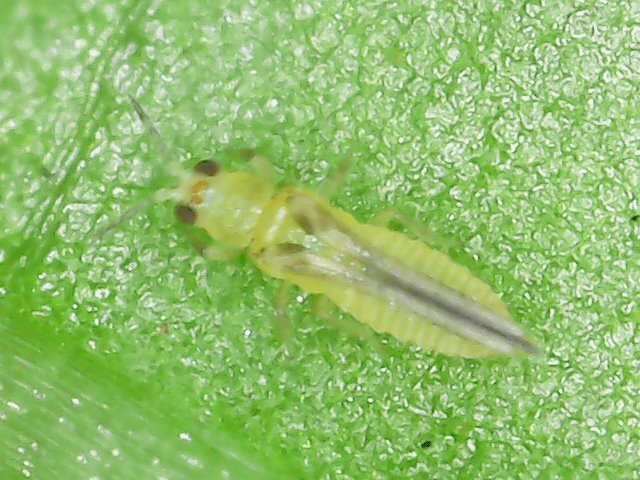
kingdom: Animalia
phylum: Arthropoda
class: Insecta
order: Thysanoptera
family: Thripidae
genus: Scirtothrips
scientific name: Scirtothrips dorsalis
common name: Thrips
